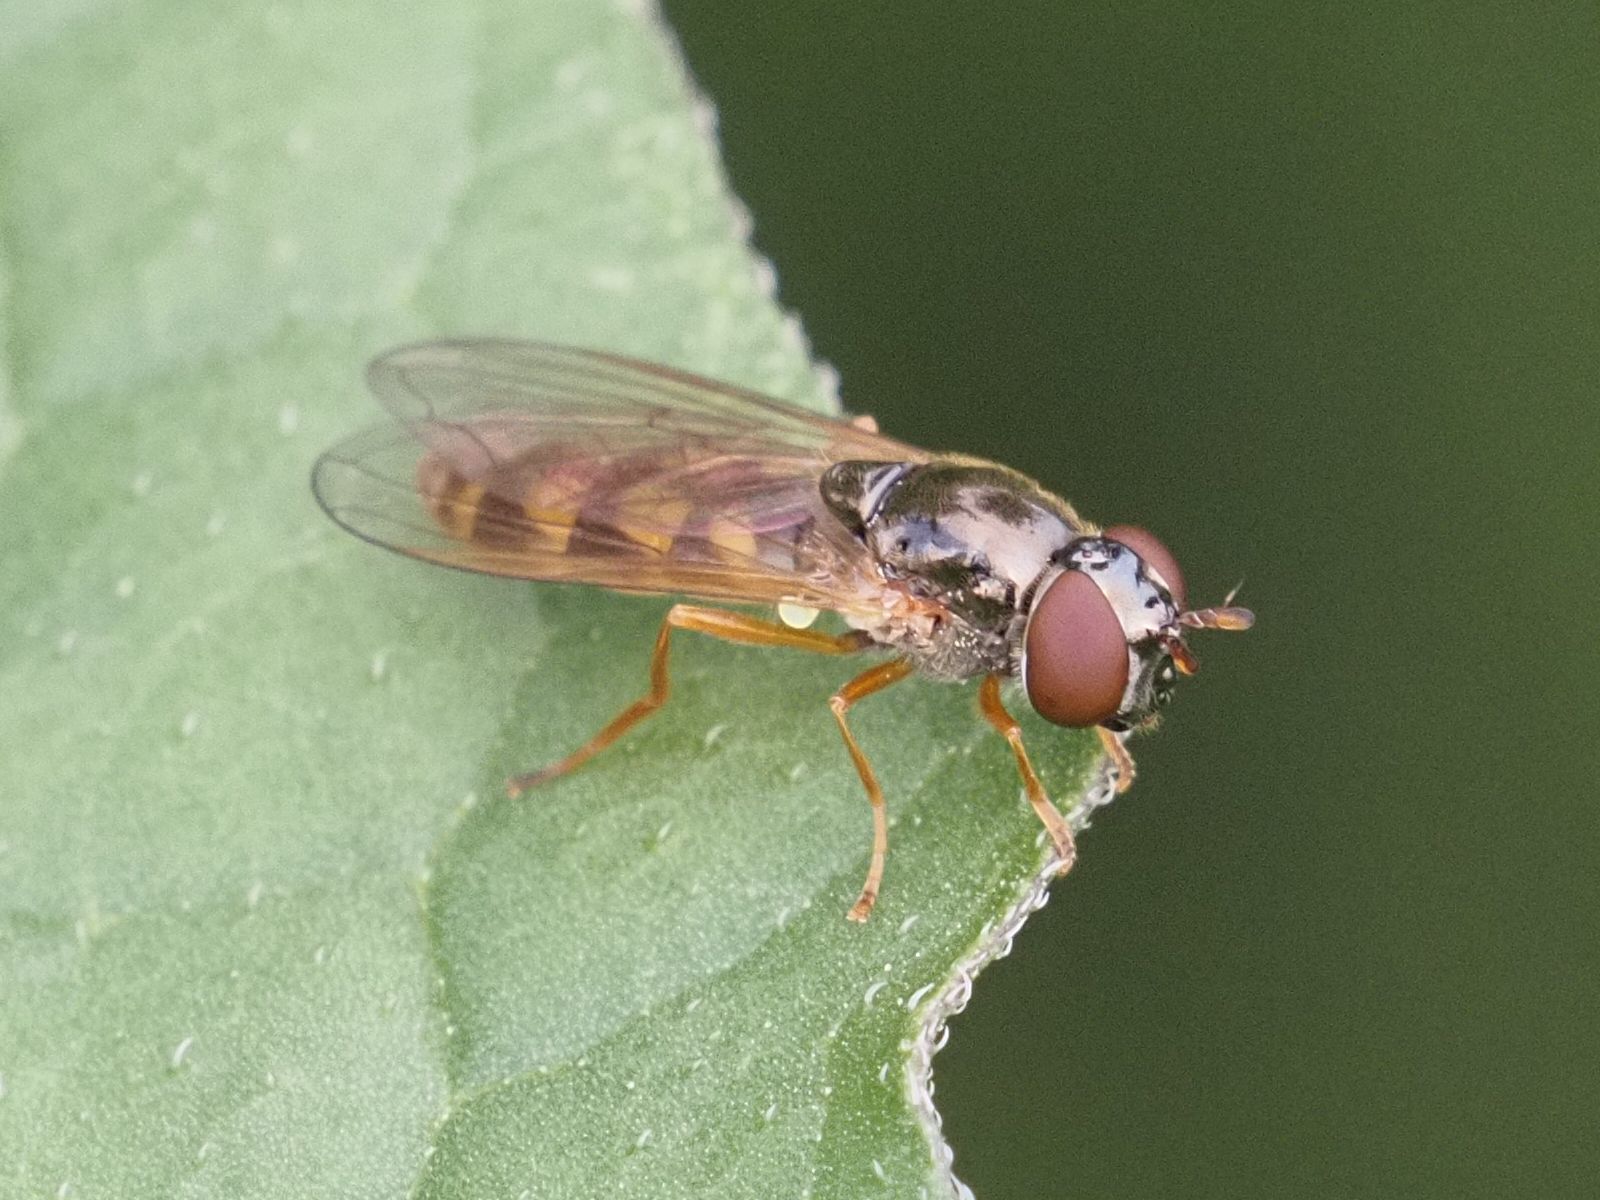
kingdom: Animalia
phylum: Arthropoda
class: Insecta
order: Diptera
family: Syrphidae
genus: Melanostoma
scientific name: Melanostoma mellina
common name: Hover fly
